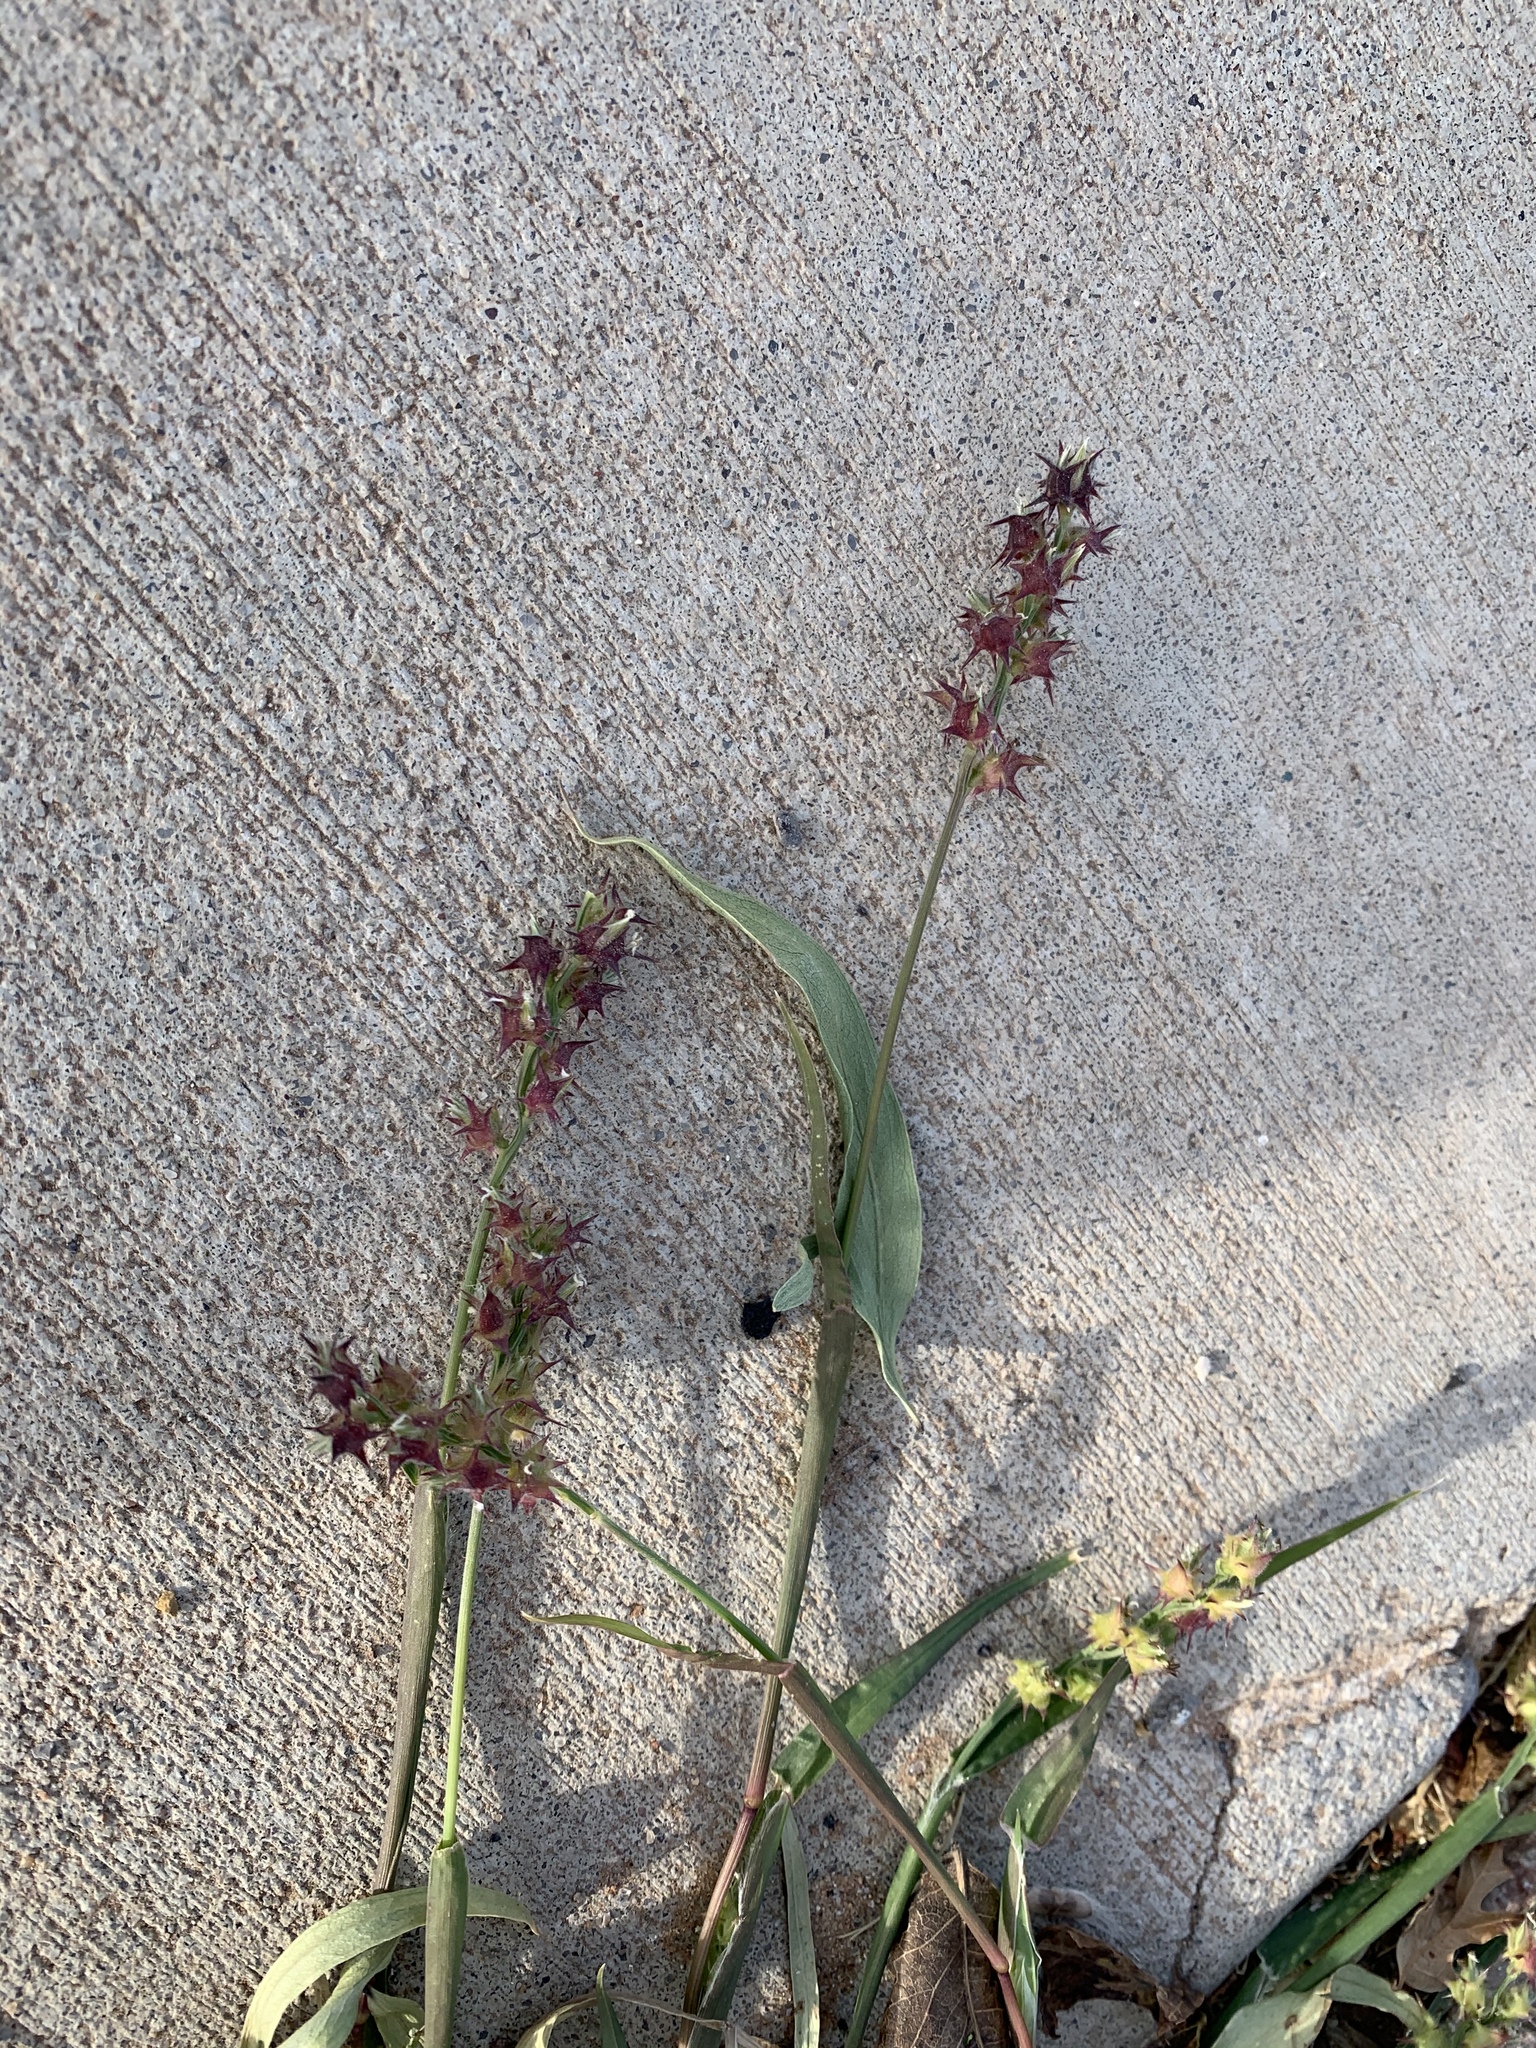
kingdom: Plantae
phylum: Tracheophyta
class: Liliopsida
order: Poales
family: Poaceae
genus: Cenchrus
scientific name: Cenchrus spinifex
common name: Coast sandbur
